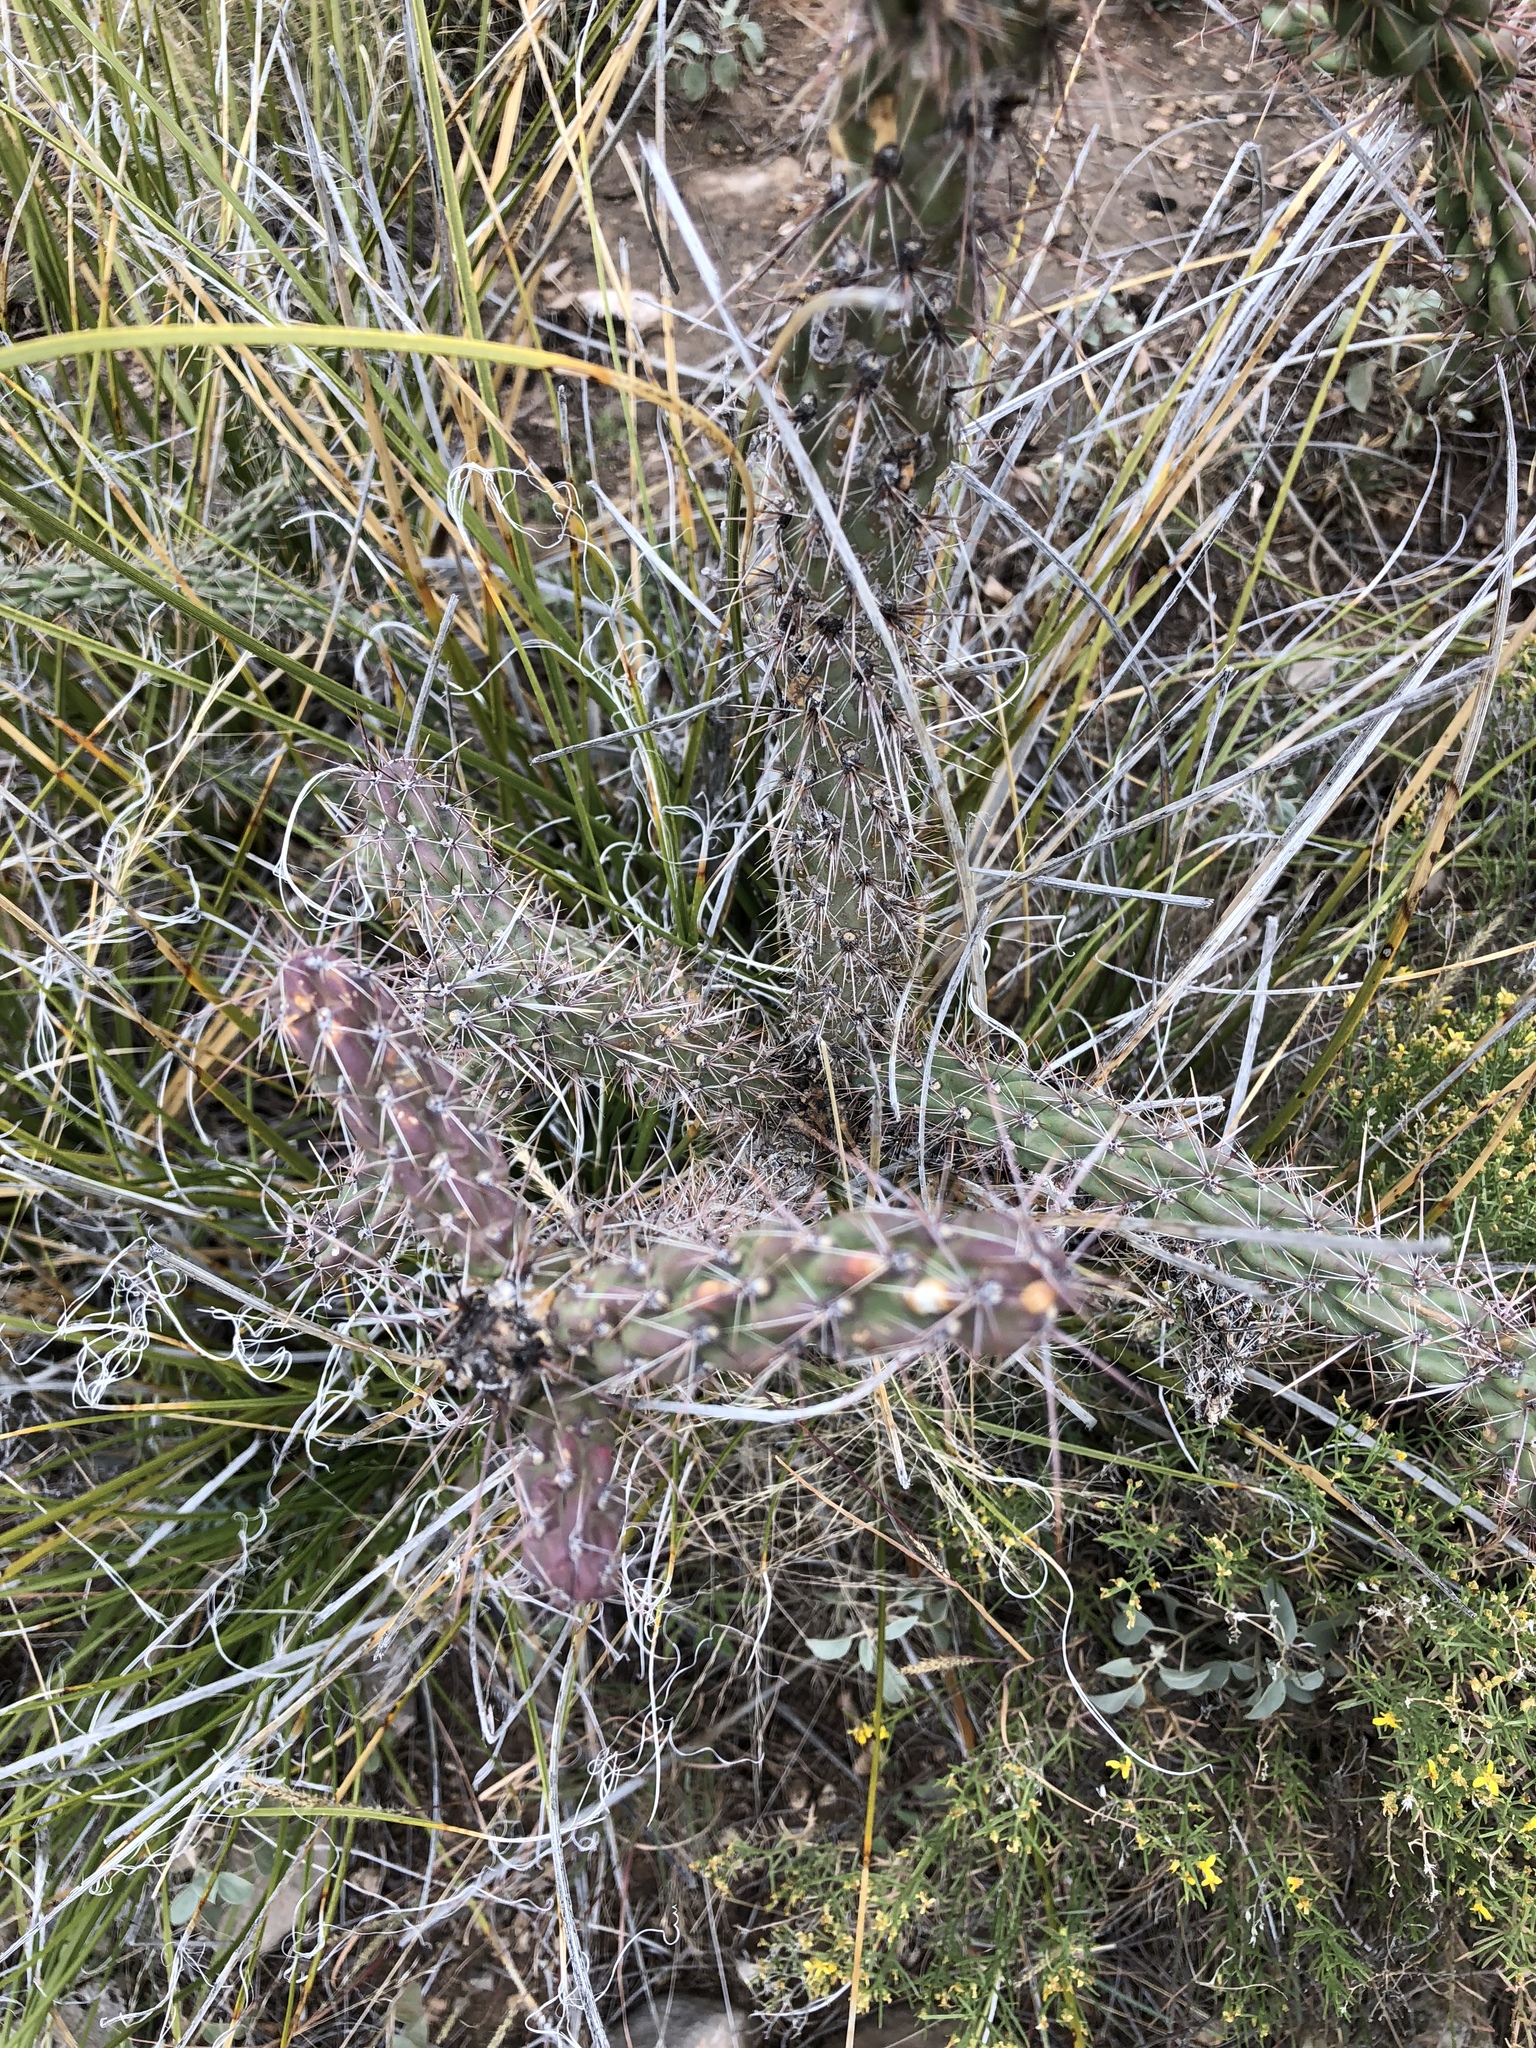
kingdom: Plantae
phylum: Tracheophyta
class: Magnoliopsida
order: Caryophyllales
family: Cactaceae
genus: Cylindropuntia
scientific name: Cylindropuntia imbricata
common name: Candelabrum cactus
